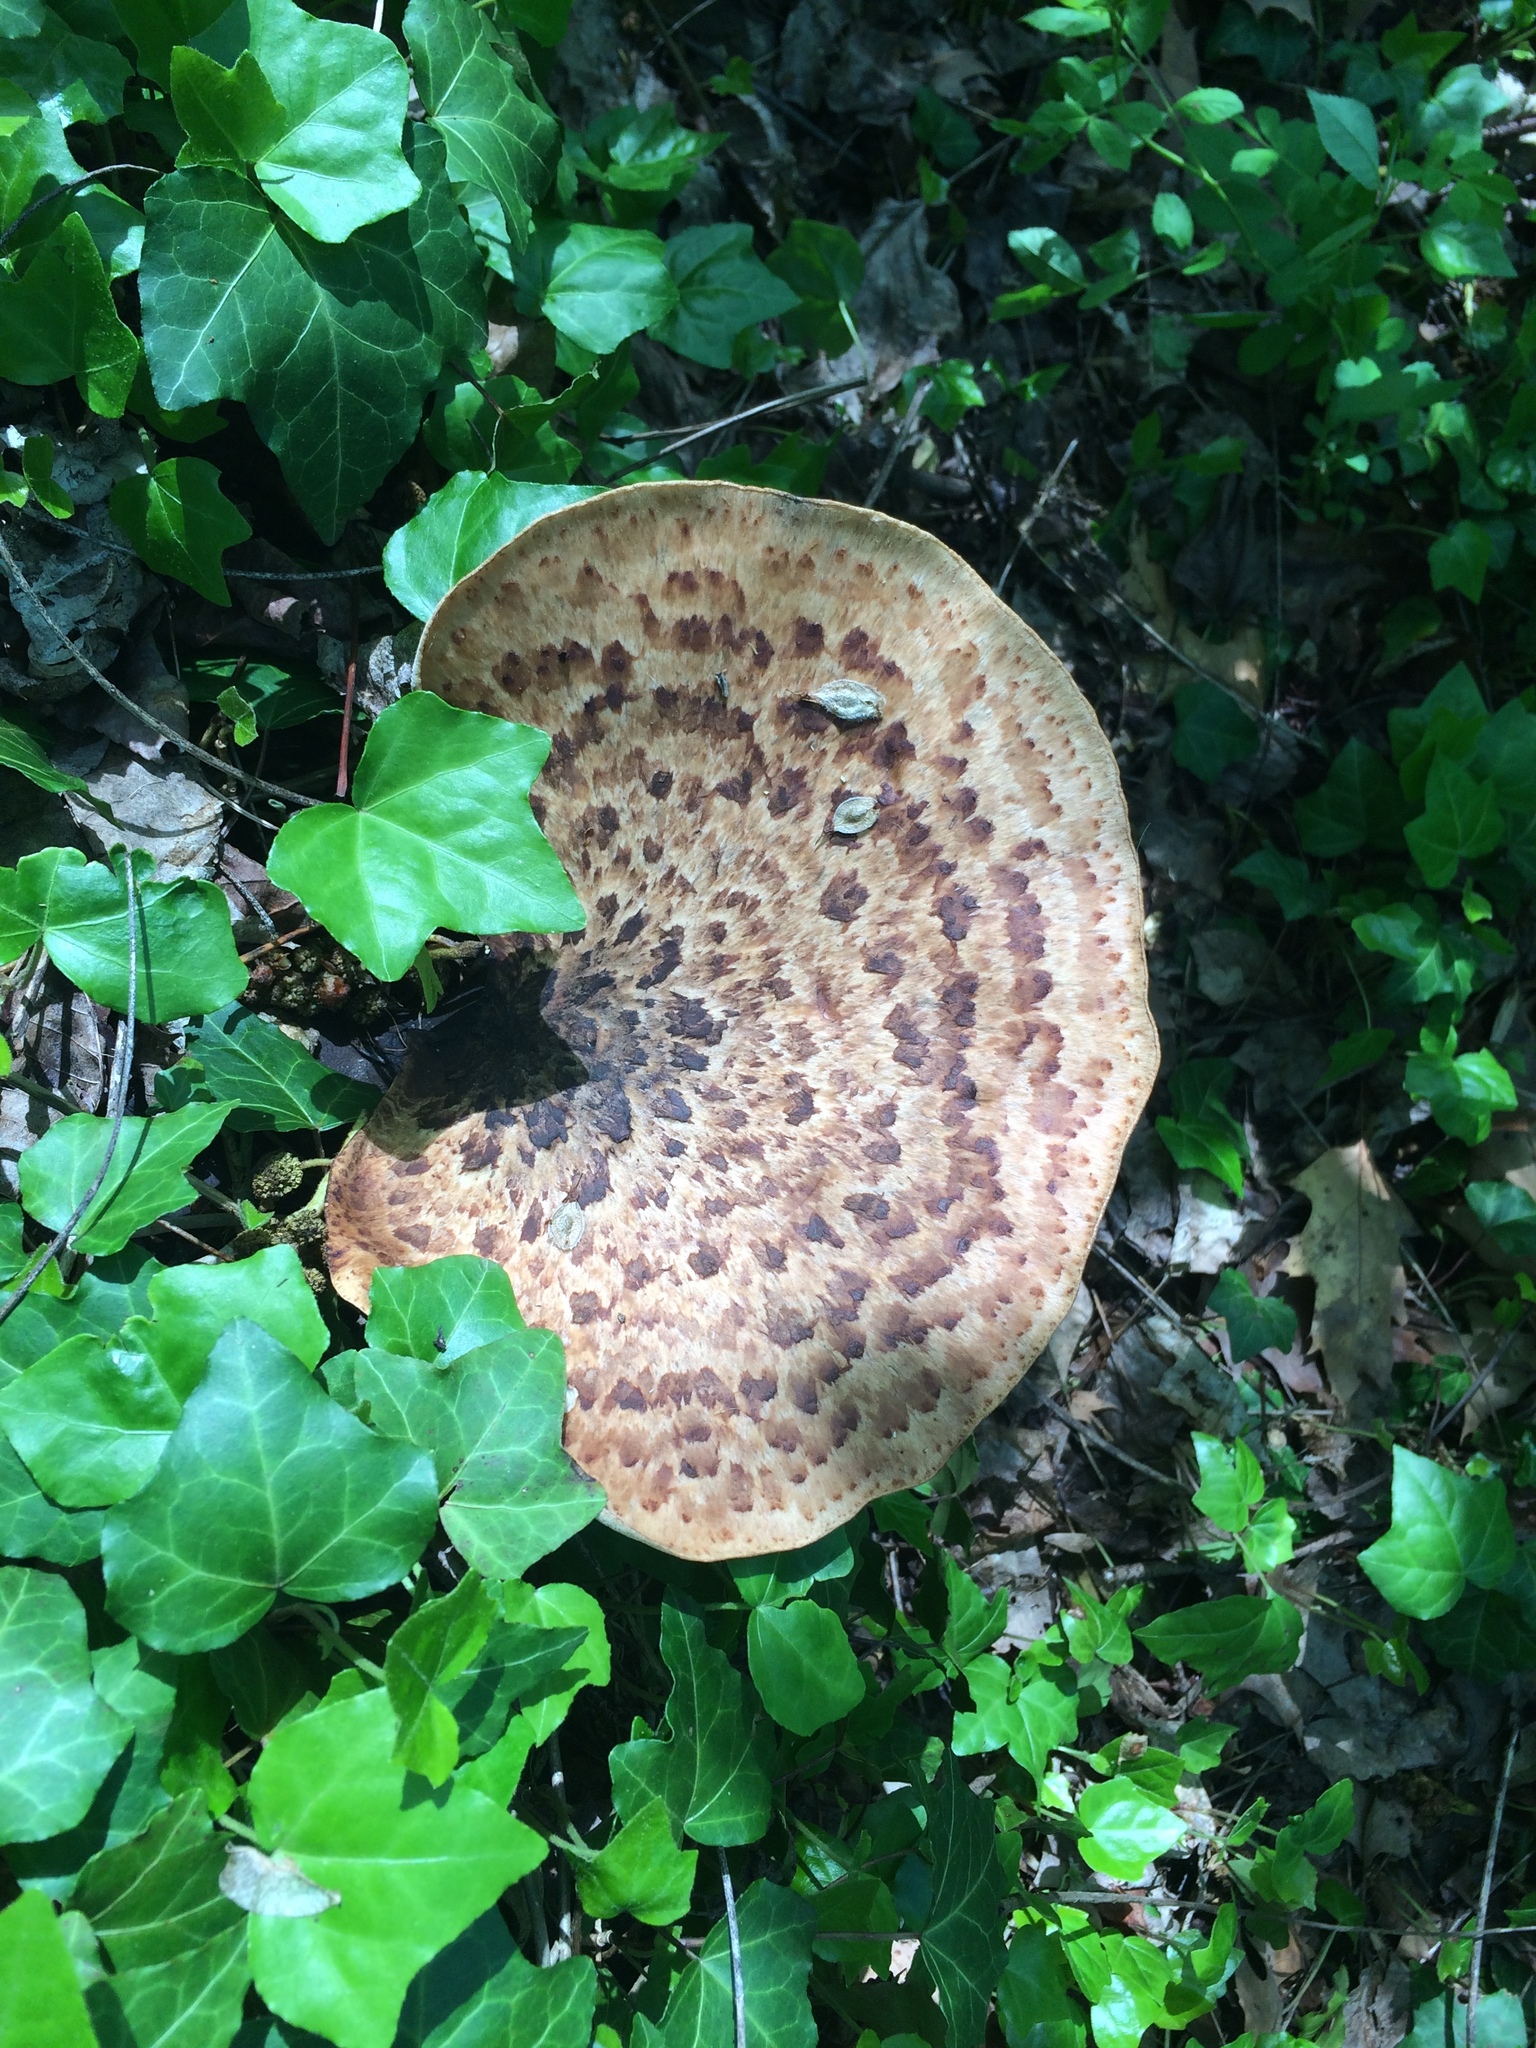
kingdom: Fungi
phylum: Basidiomycota
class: Agaricomycetes
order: Polyporales
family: Polyporaceae
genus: Cerioporus
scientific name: Cerioporus squamosus
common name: Dryad's saddle
